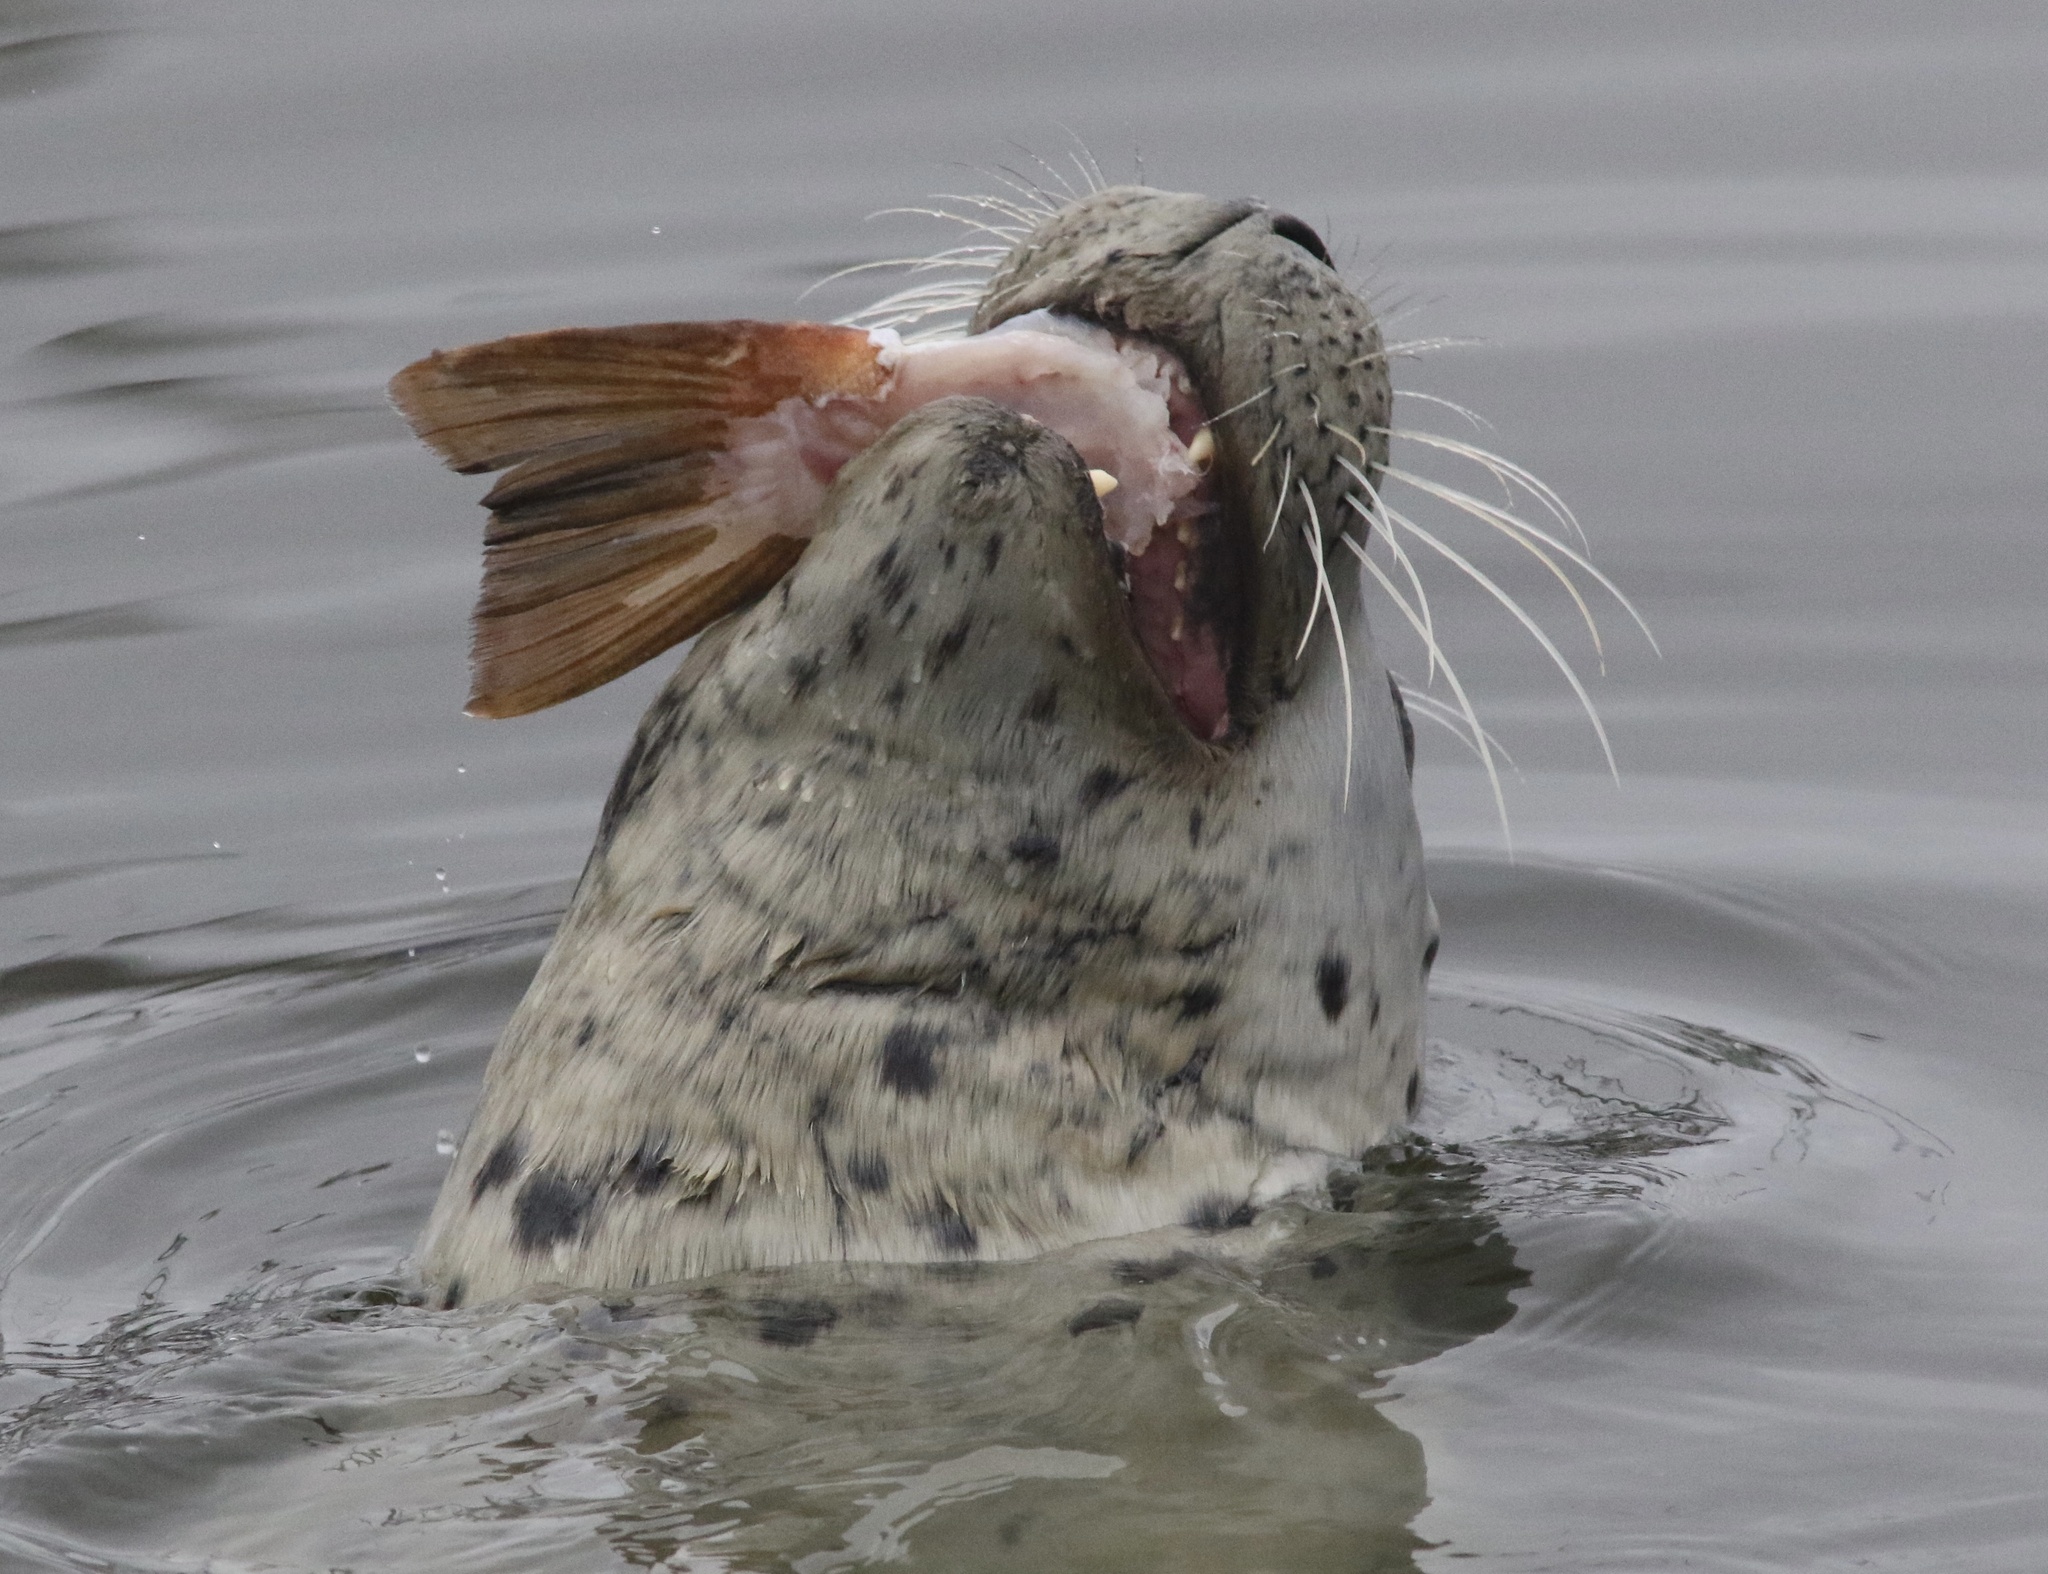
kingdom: Animalia
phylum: Chordata
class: Mammalia
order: Carnivora
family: Phocidae
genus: Phoca
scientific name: Phoca vitulina
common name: Harbor seal
